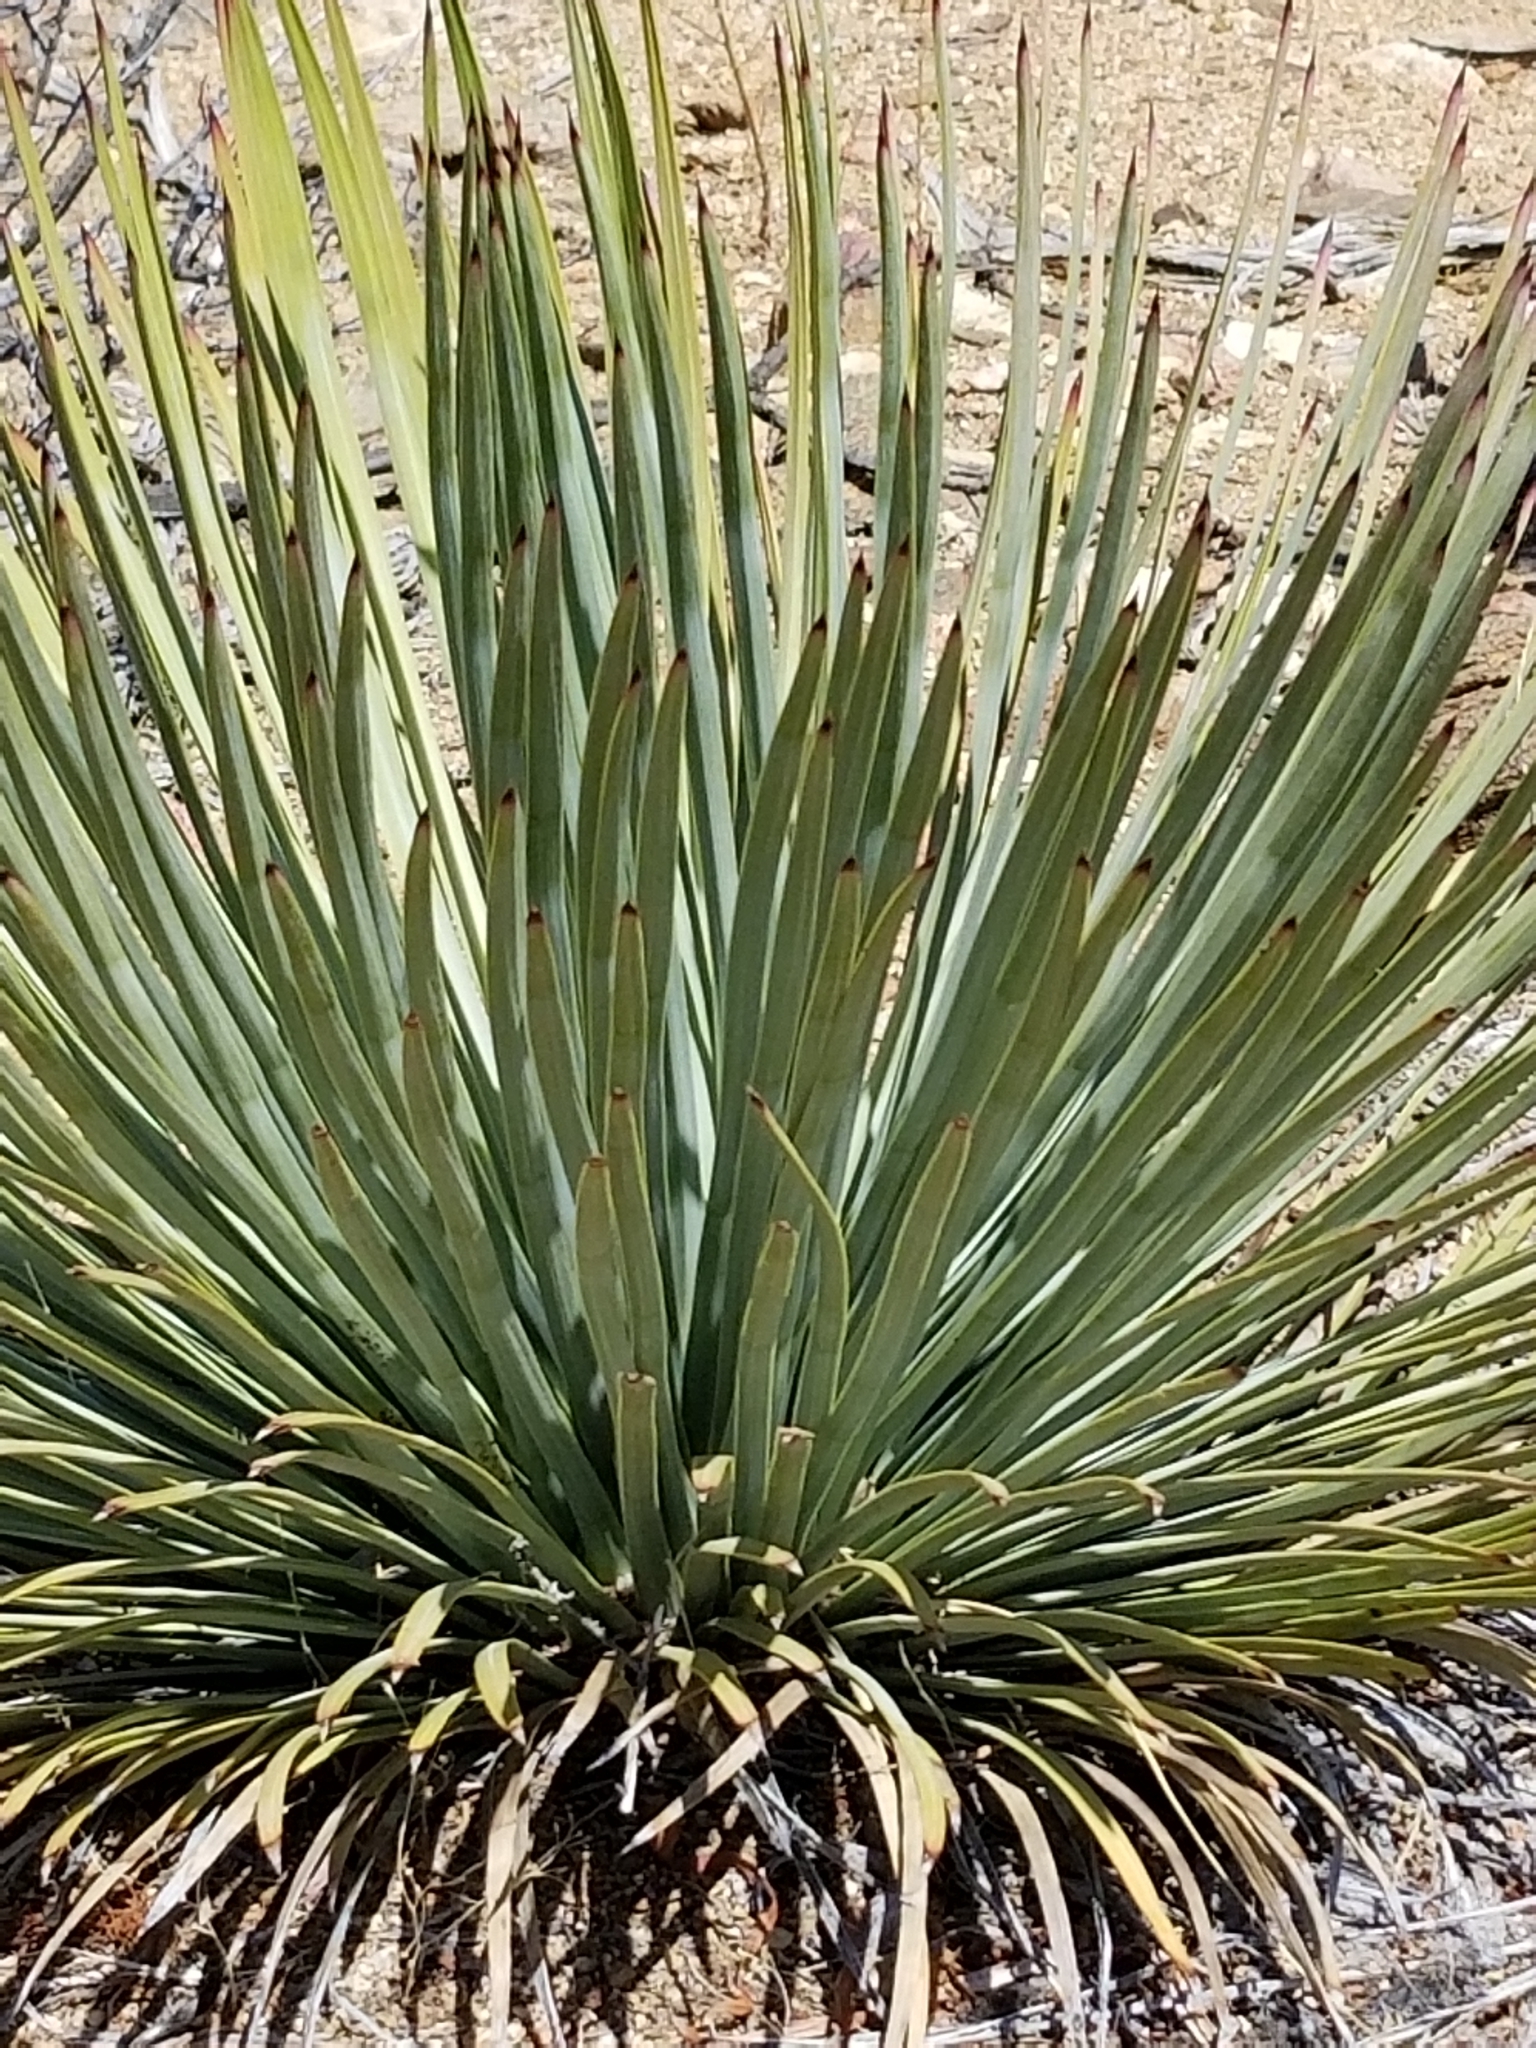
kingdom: Plantae
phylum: Tracheophyta
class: Liliopsida
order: Asparagales
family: Asparagaceae
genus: Hesperoyucca
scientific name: Hesperoyucca whipplei
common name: Our lord's-candle
